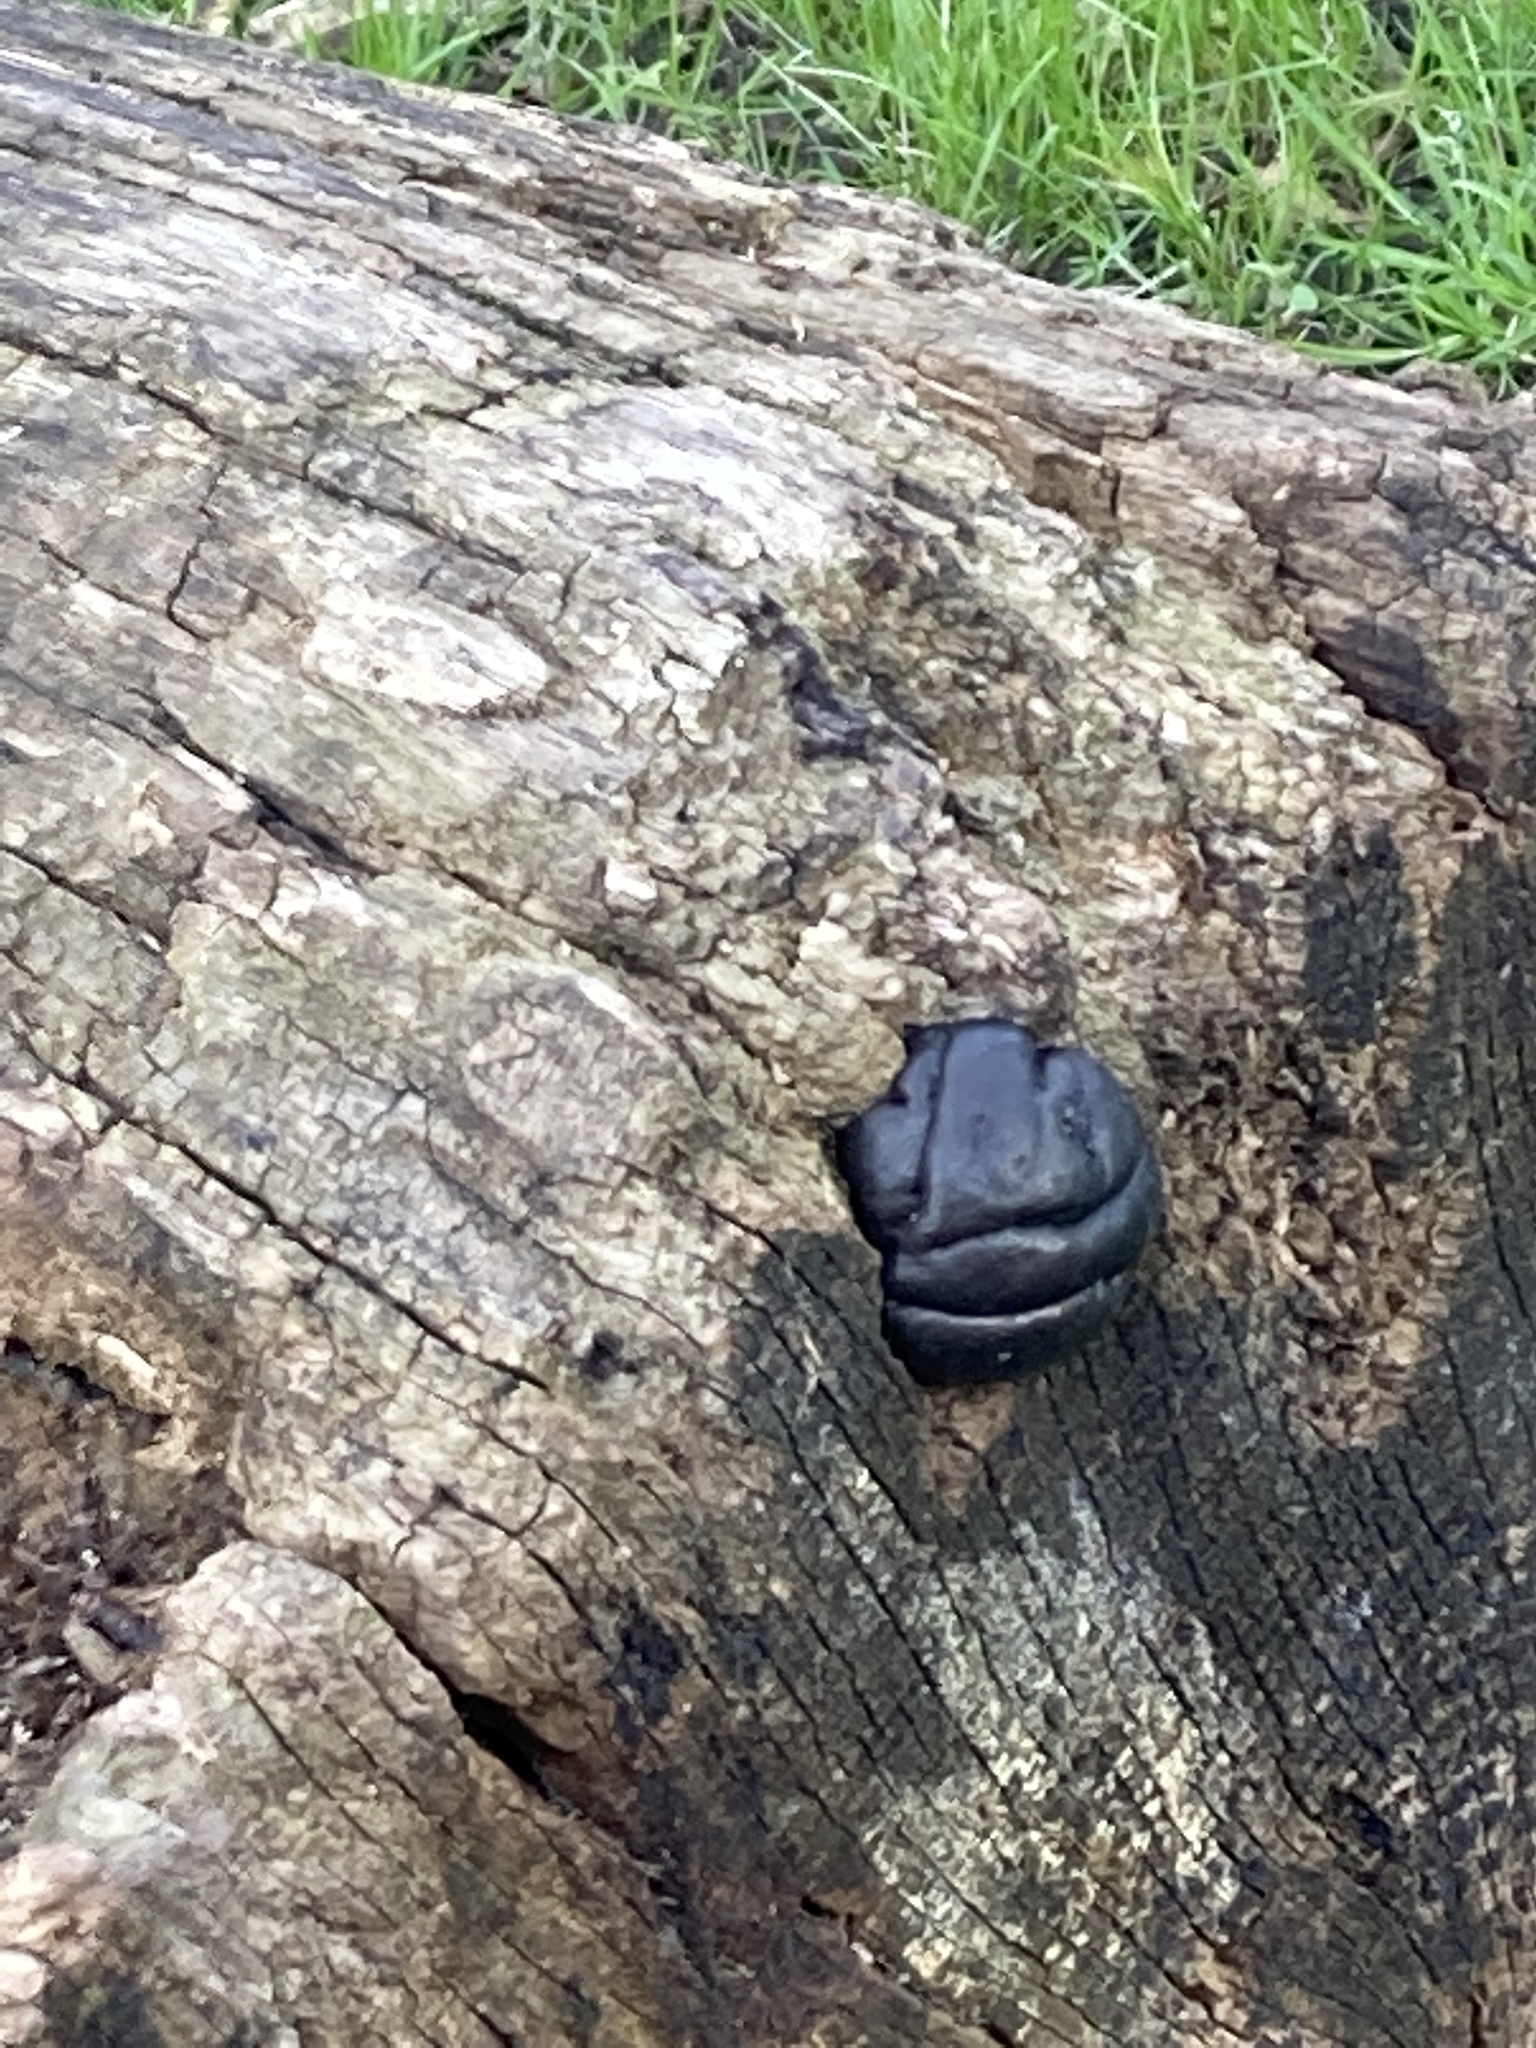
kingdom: Fungi
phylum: Ascomycota
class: Sordariomycetes
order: Xylariales
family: Hypoxylaceae
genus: Daldinia
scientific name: Daldinia concentrica
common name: Cramp balls
